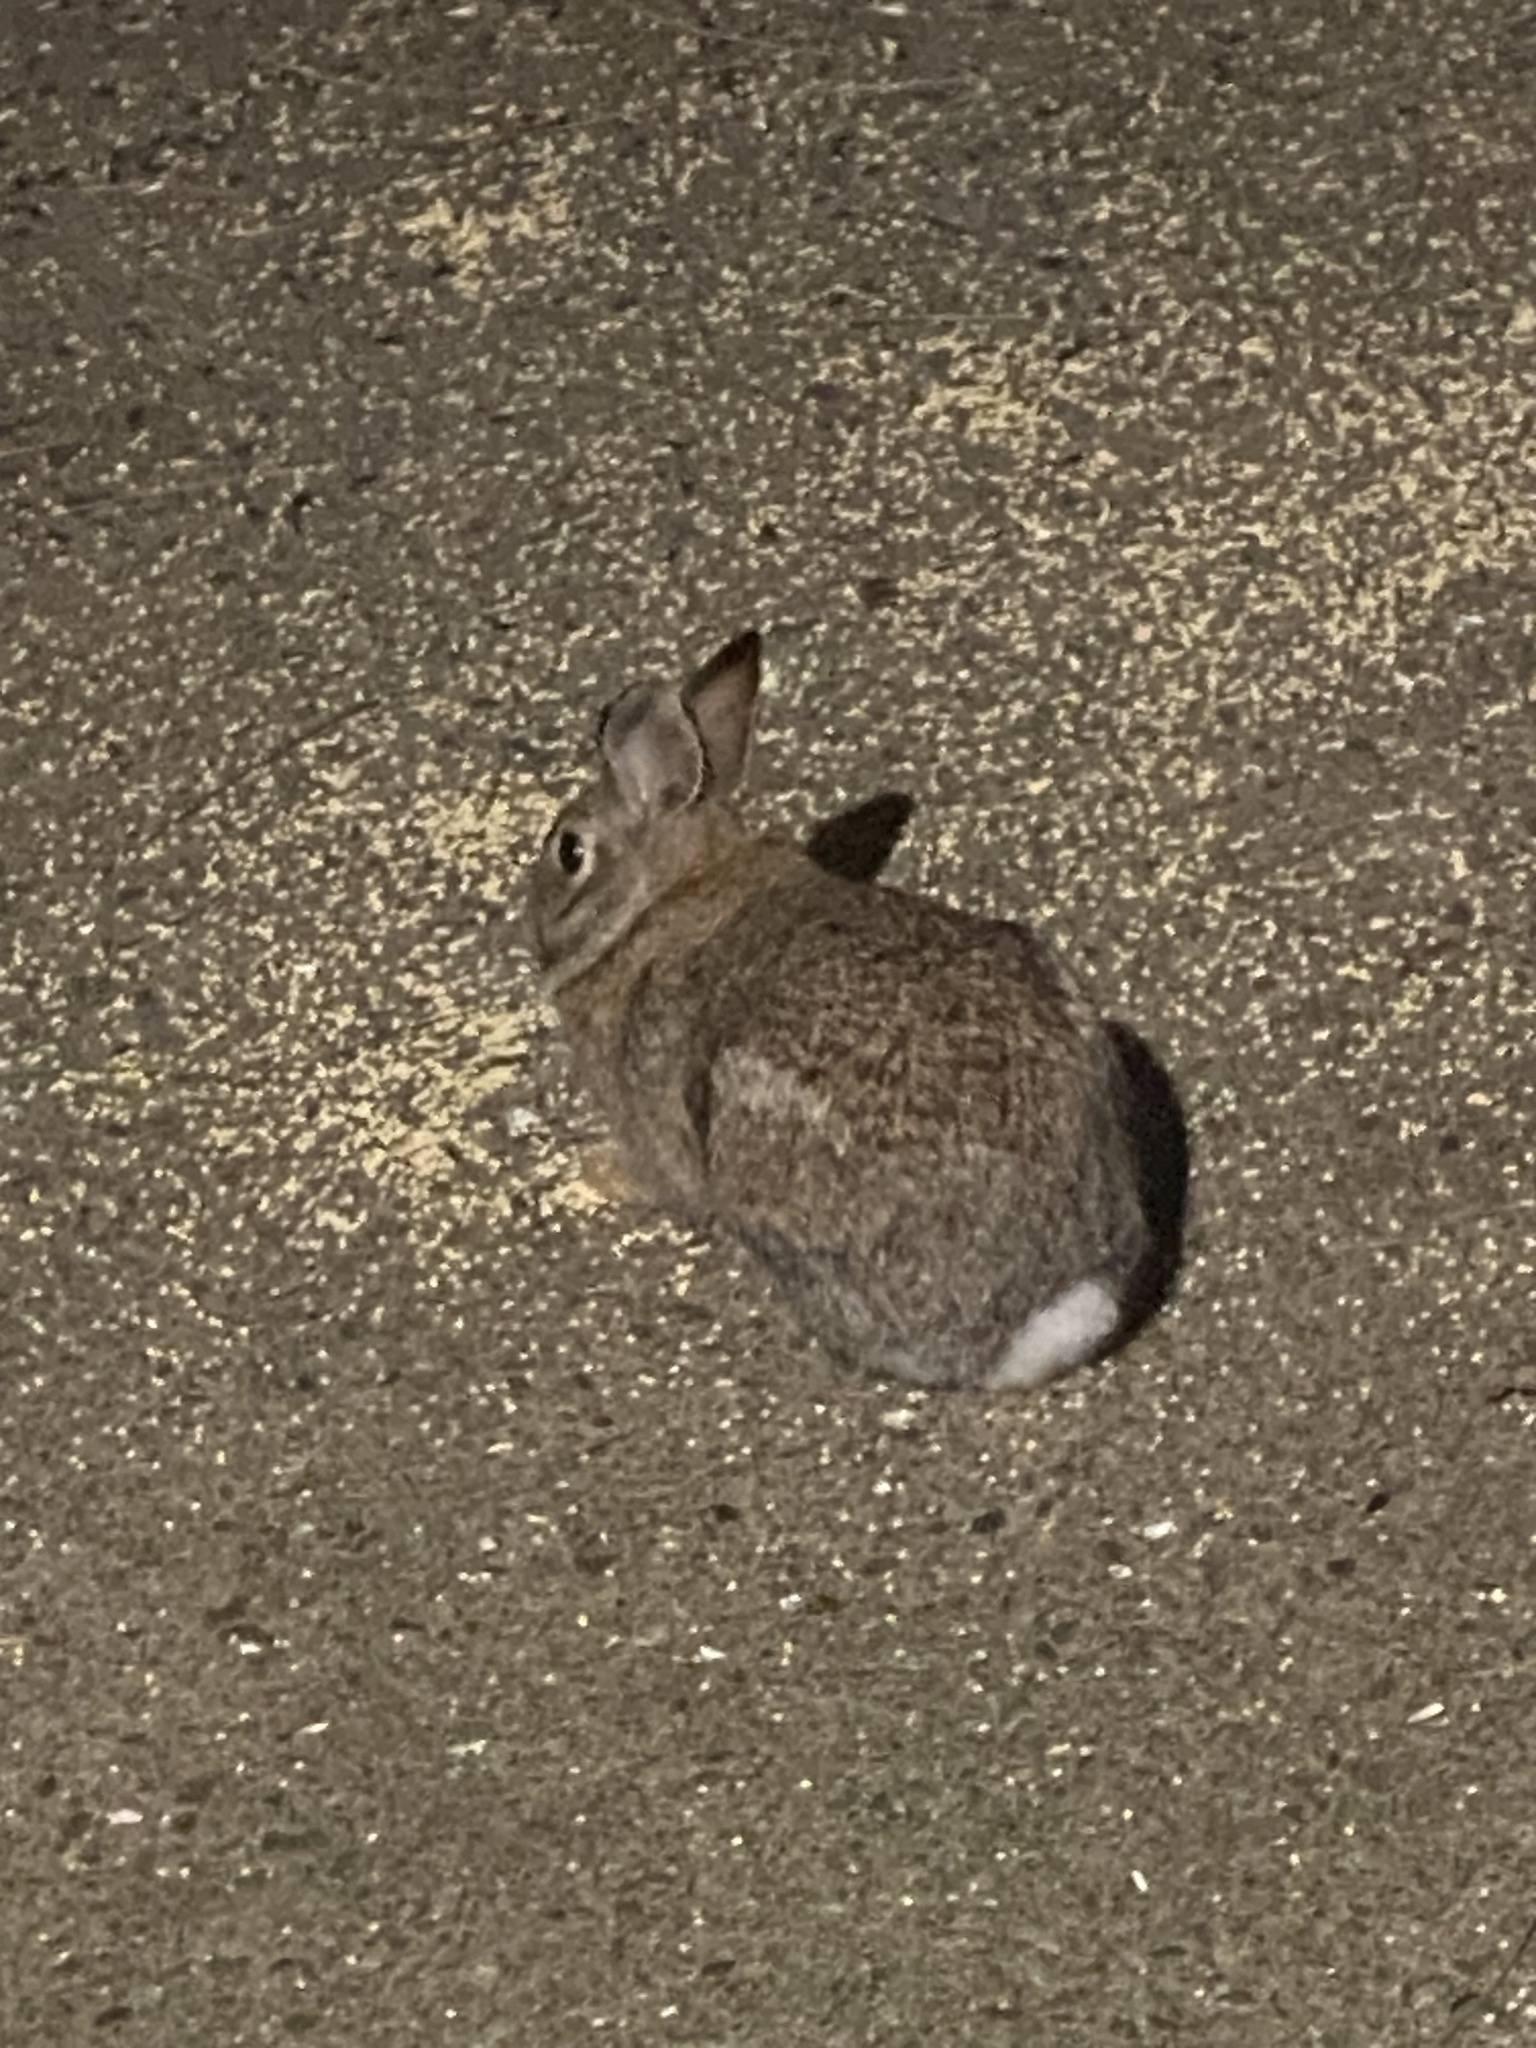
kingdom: Animalia
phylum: Chordata
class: Mammalia
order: Lagomorpha
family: Leporidae
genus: Sylvilagus
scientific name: Sylvilagus floridanus
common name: Eastern cottontail
